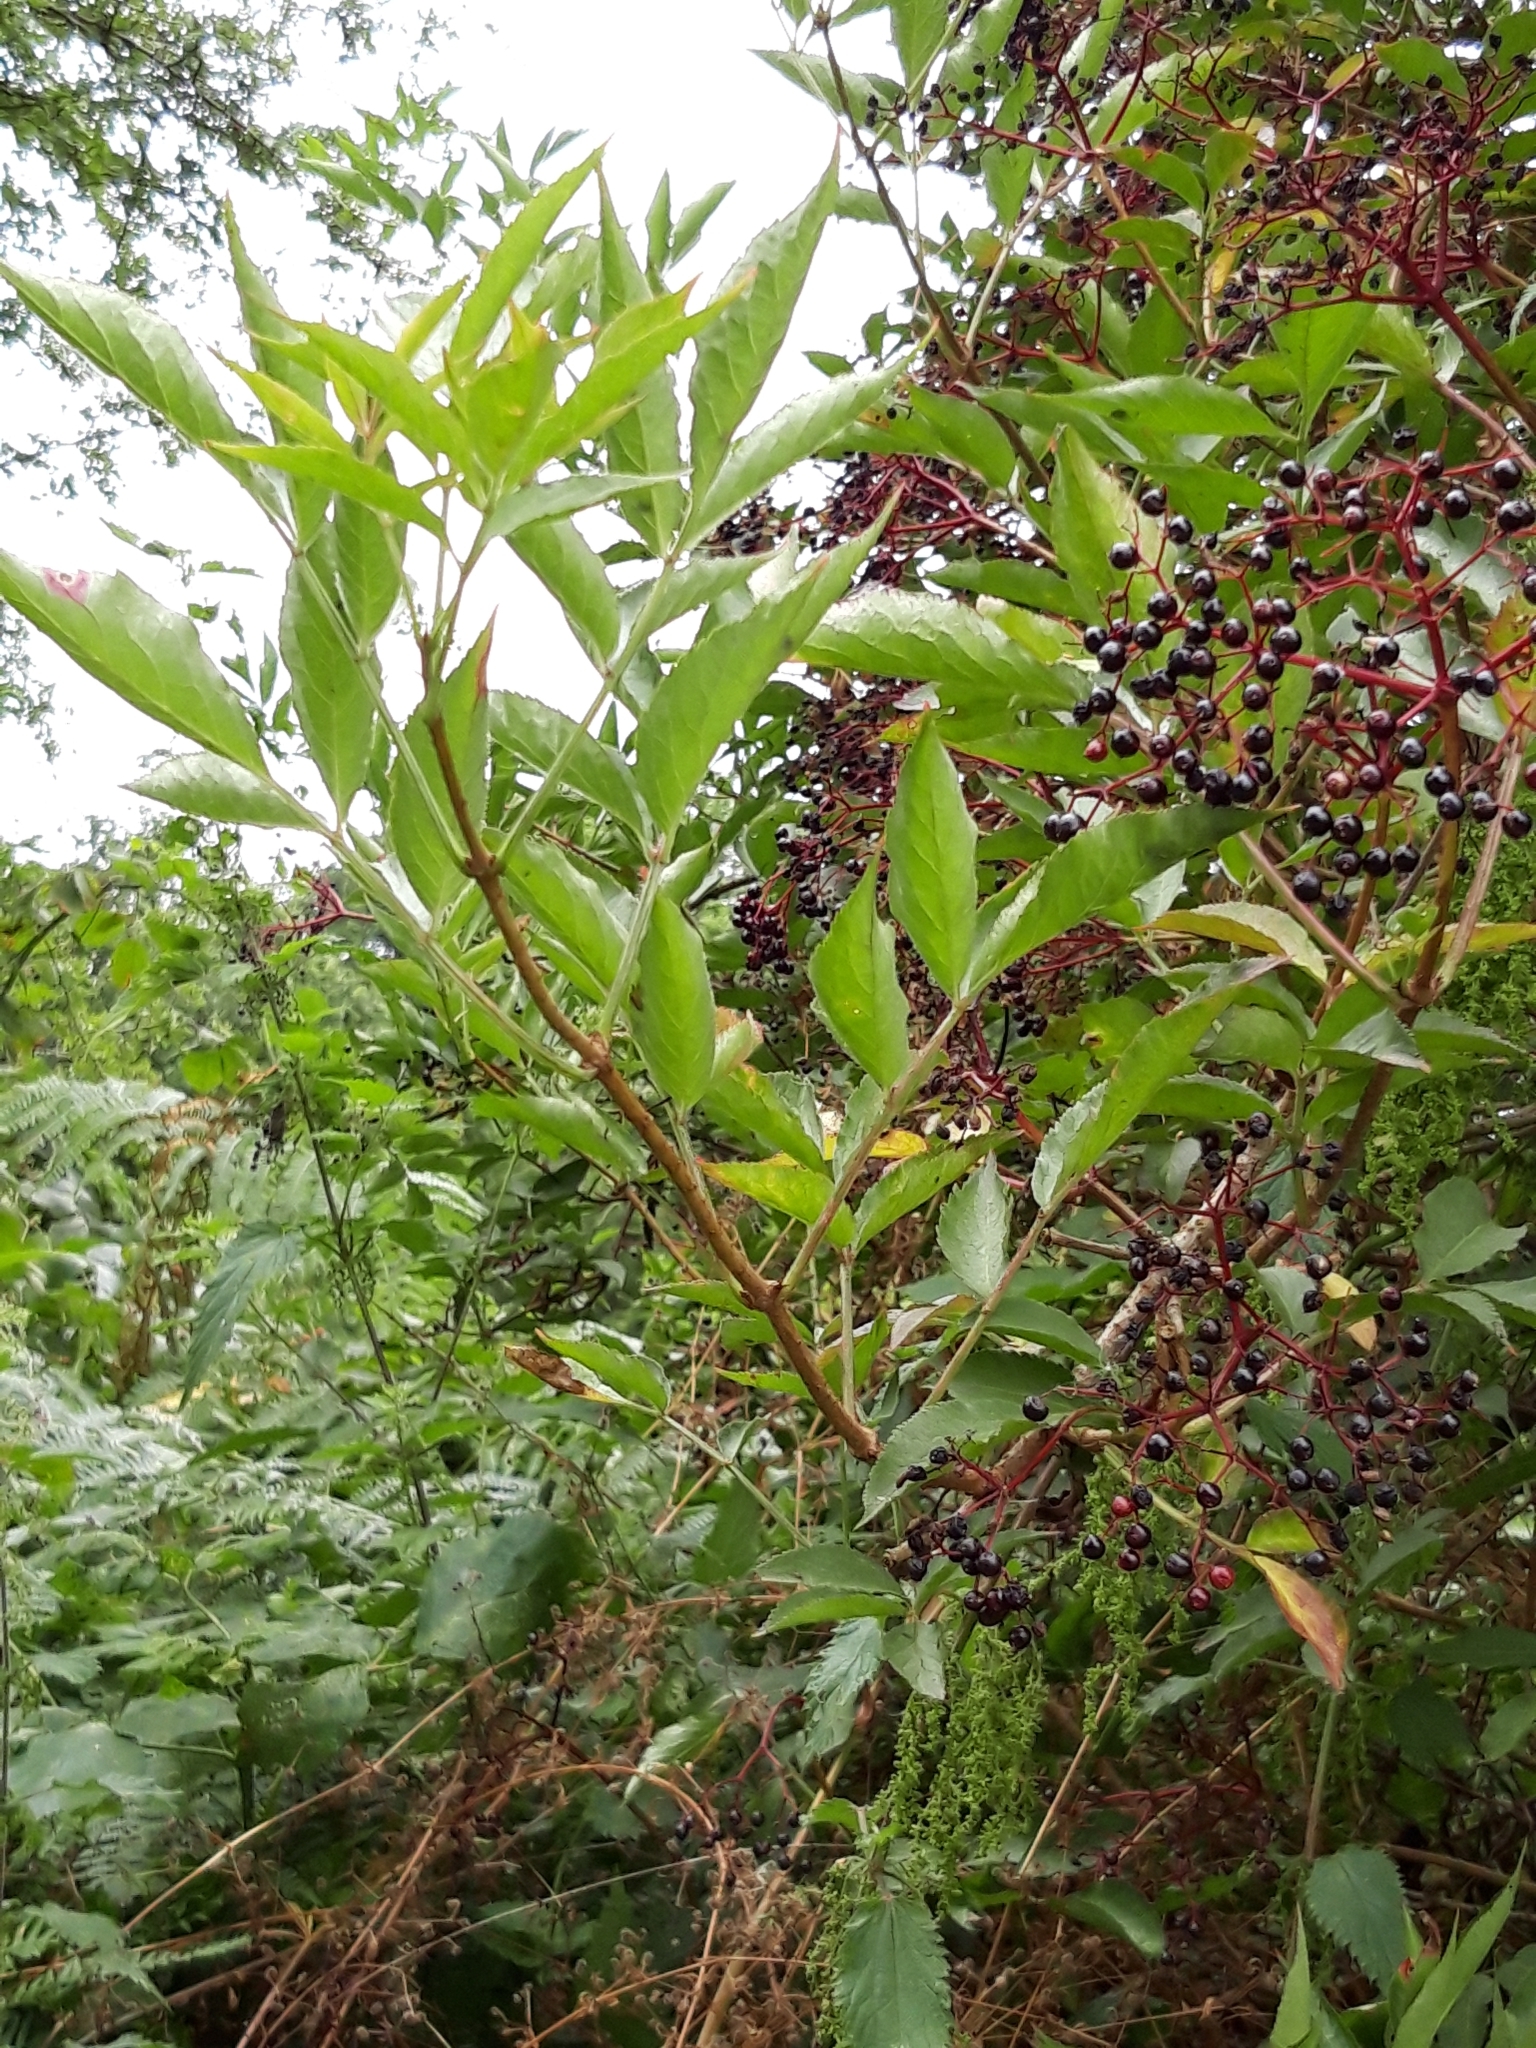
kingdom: Plantae
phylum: Tracheophyta
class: Magnoliopsida
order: Dipsacales
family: Viburnaceae
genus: Sambucus
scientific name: Sambucus nigra
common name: Elder
